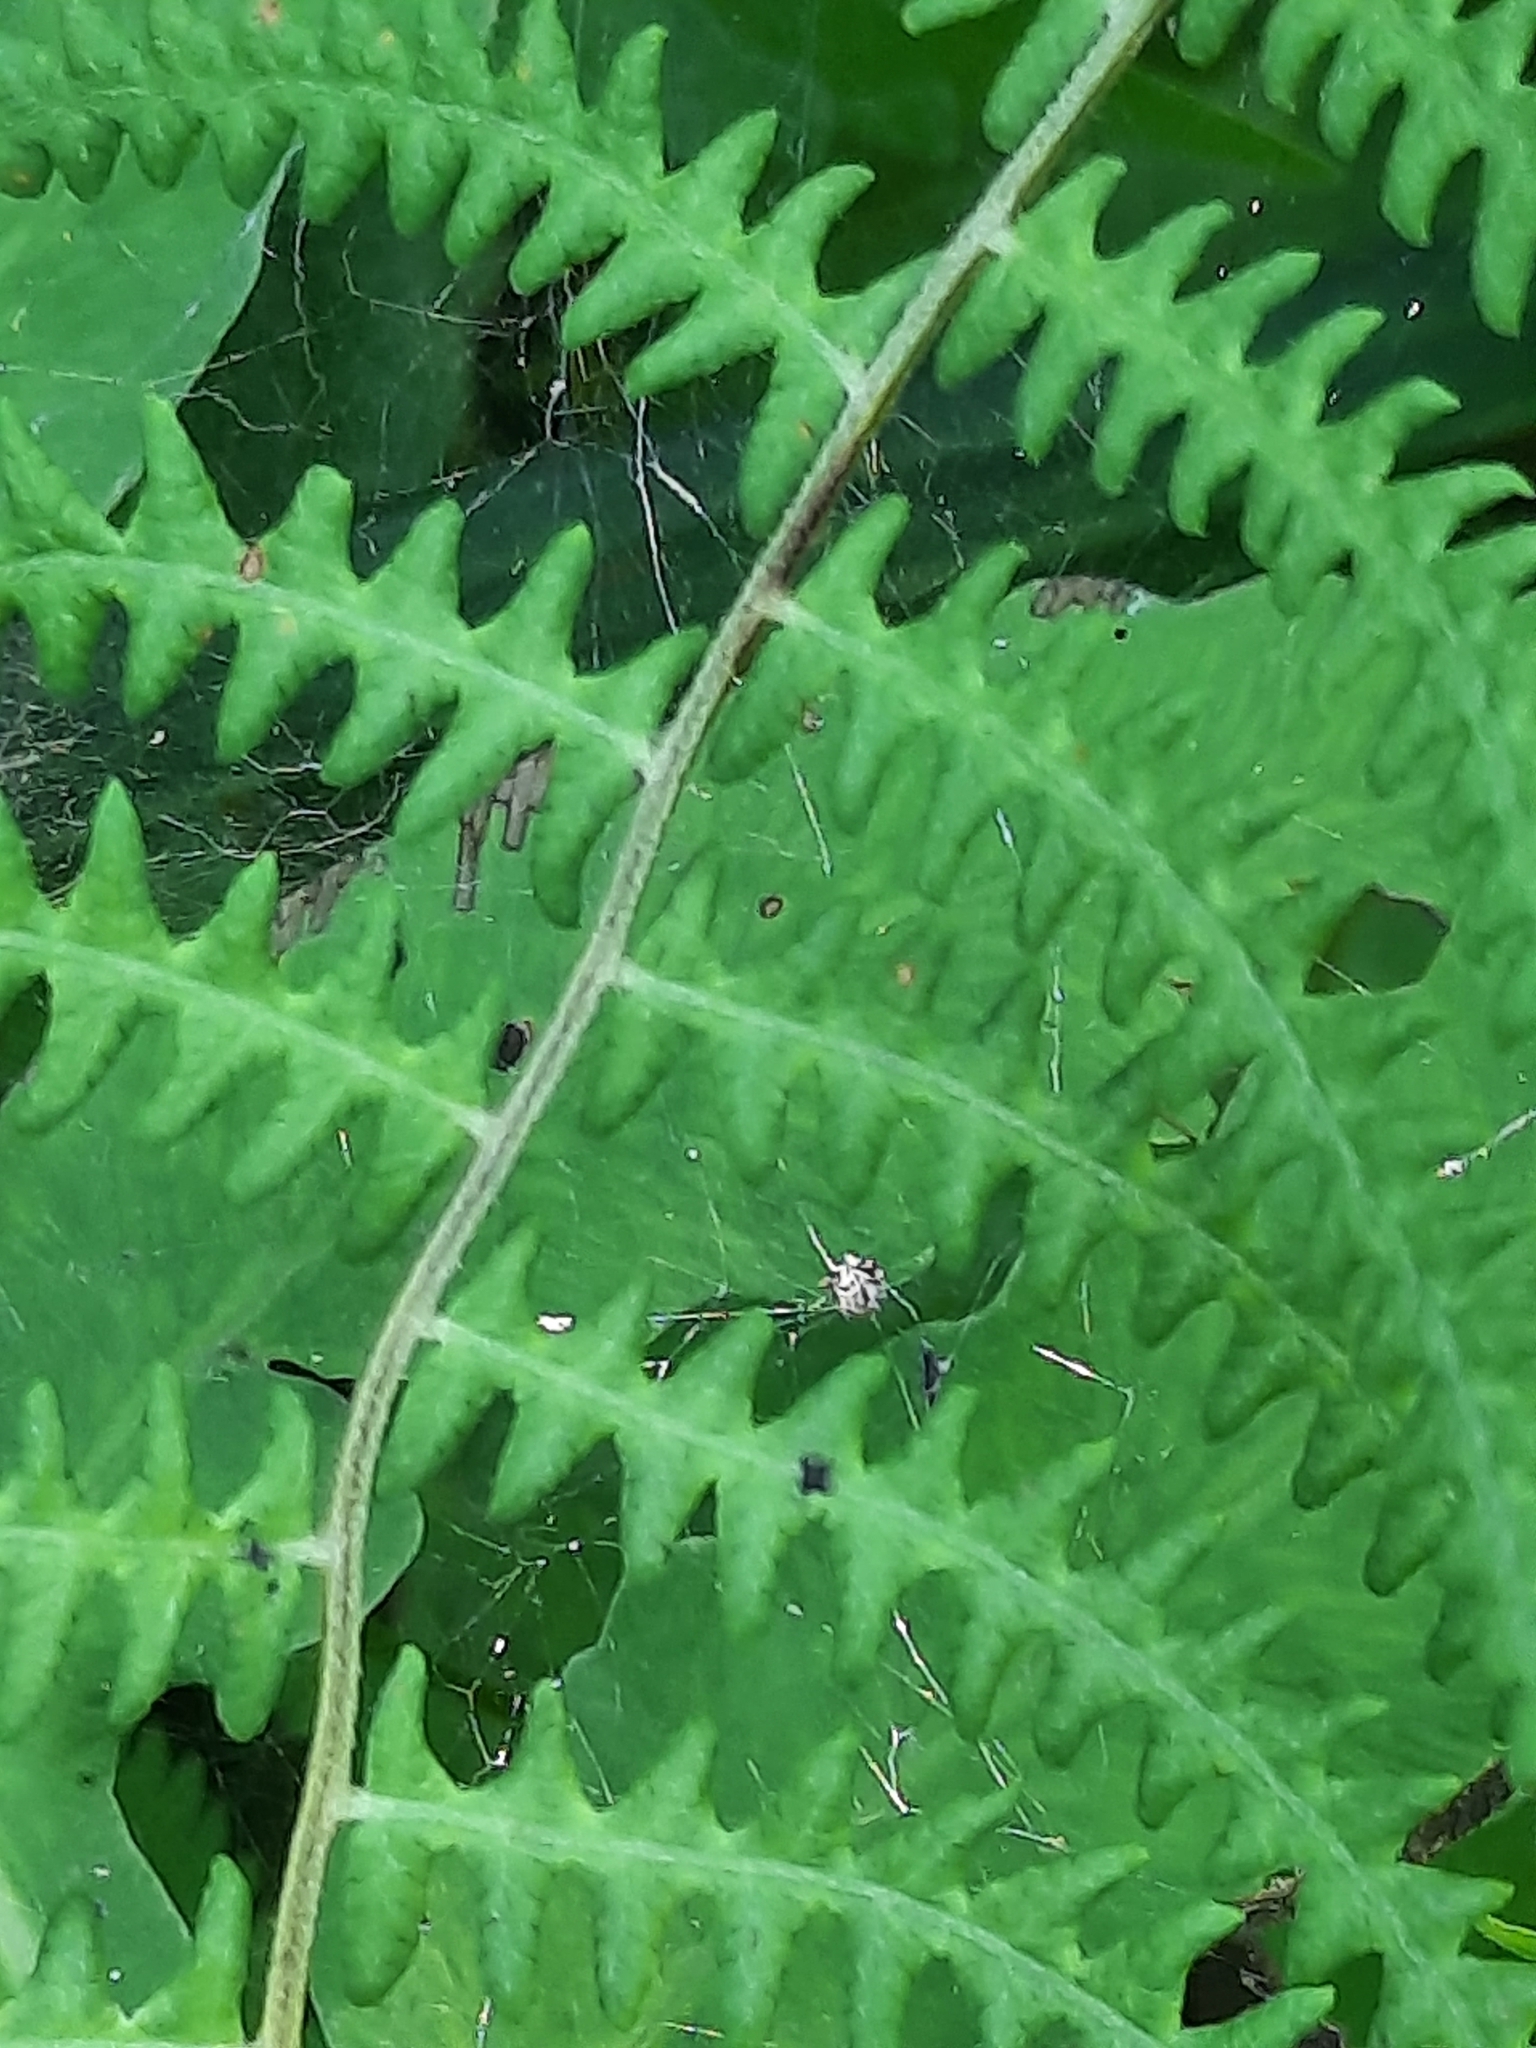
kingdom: Plantae
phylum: Tracheophyta
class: Polypodiopsida
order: Polypodiales
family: Thelypteridaceae
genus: Thelypteris
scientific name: Thelypteris palustris
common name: Marsh fern
